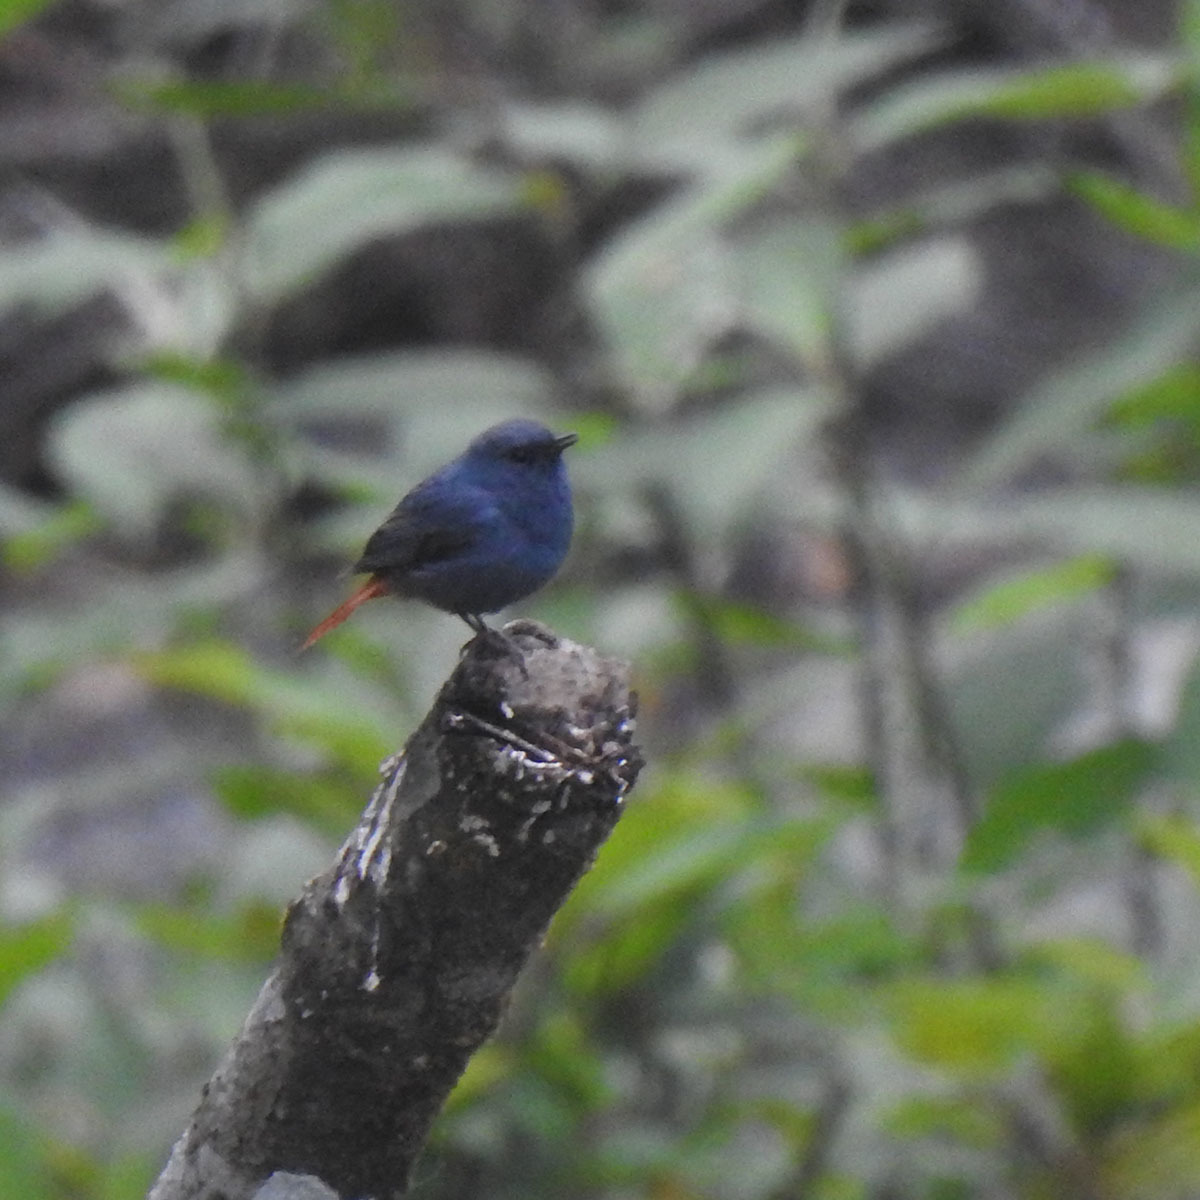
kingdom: Animalia
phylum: Chordata
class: Aves
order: Passeriformes
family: Muscicapidae
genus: Phoenicurus
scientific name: Phoenicurus fuliginosus
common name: Plumbeous water redstart
